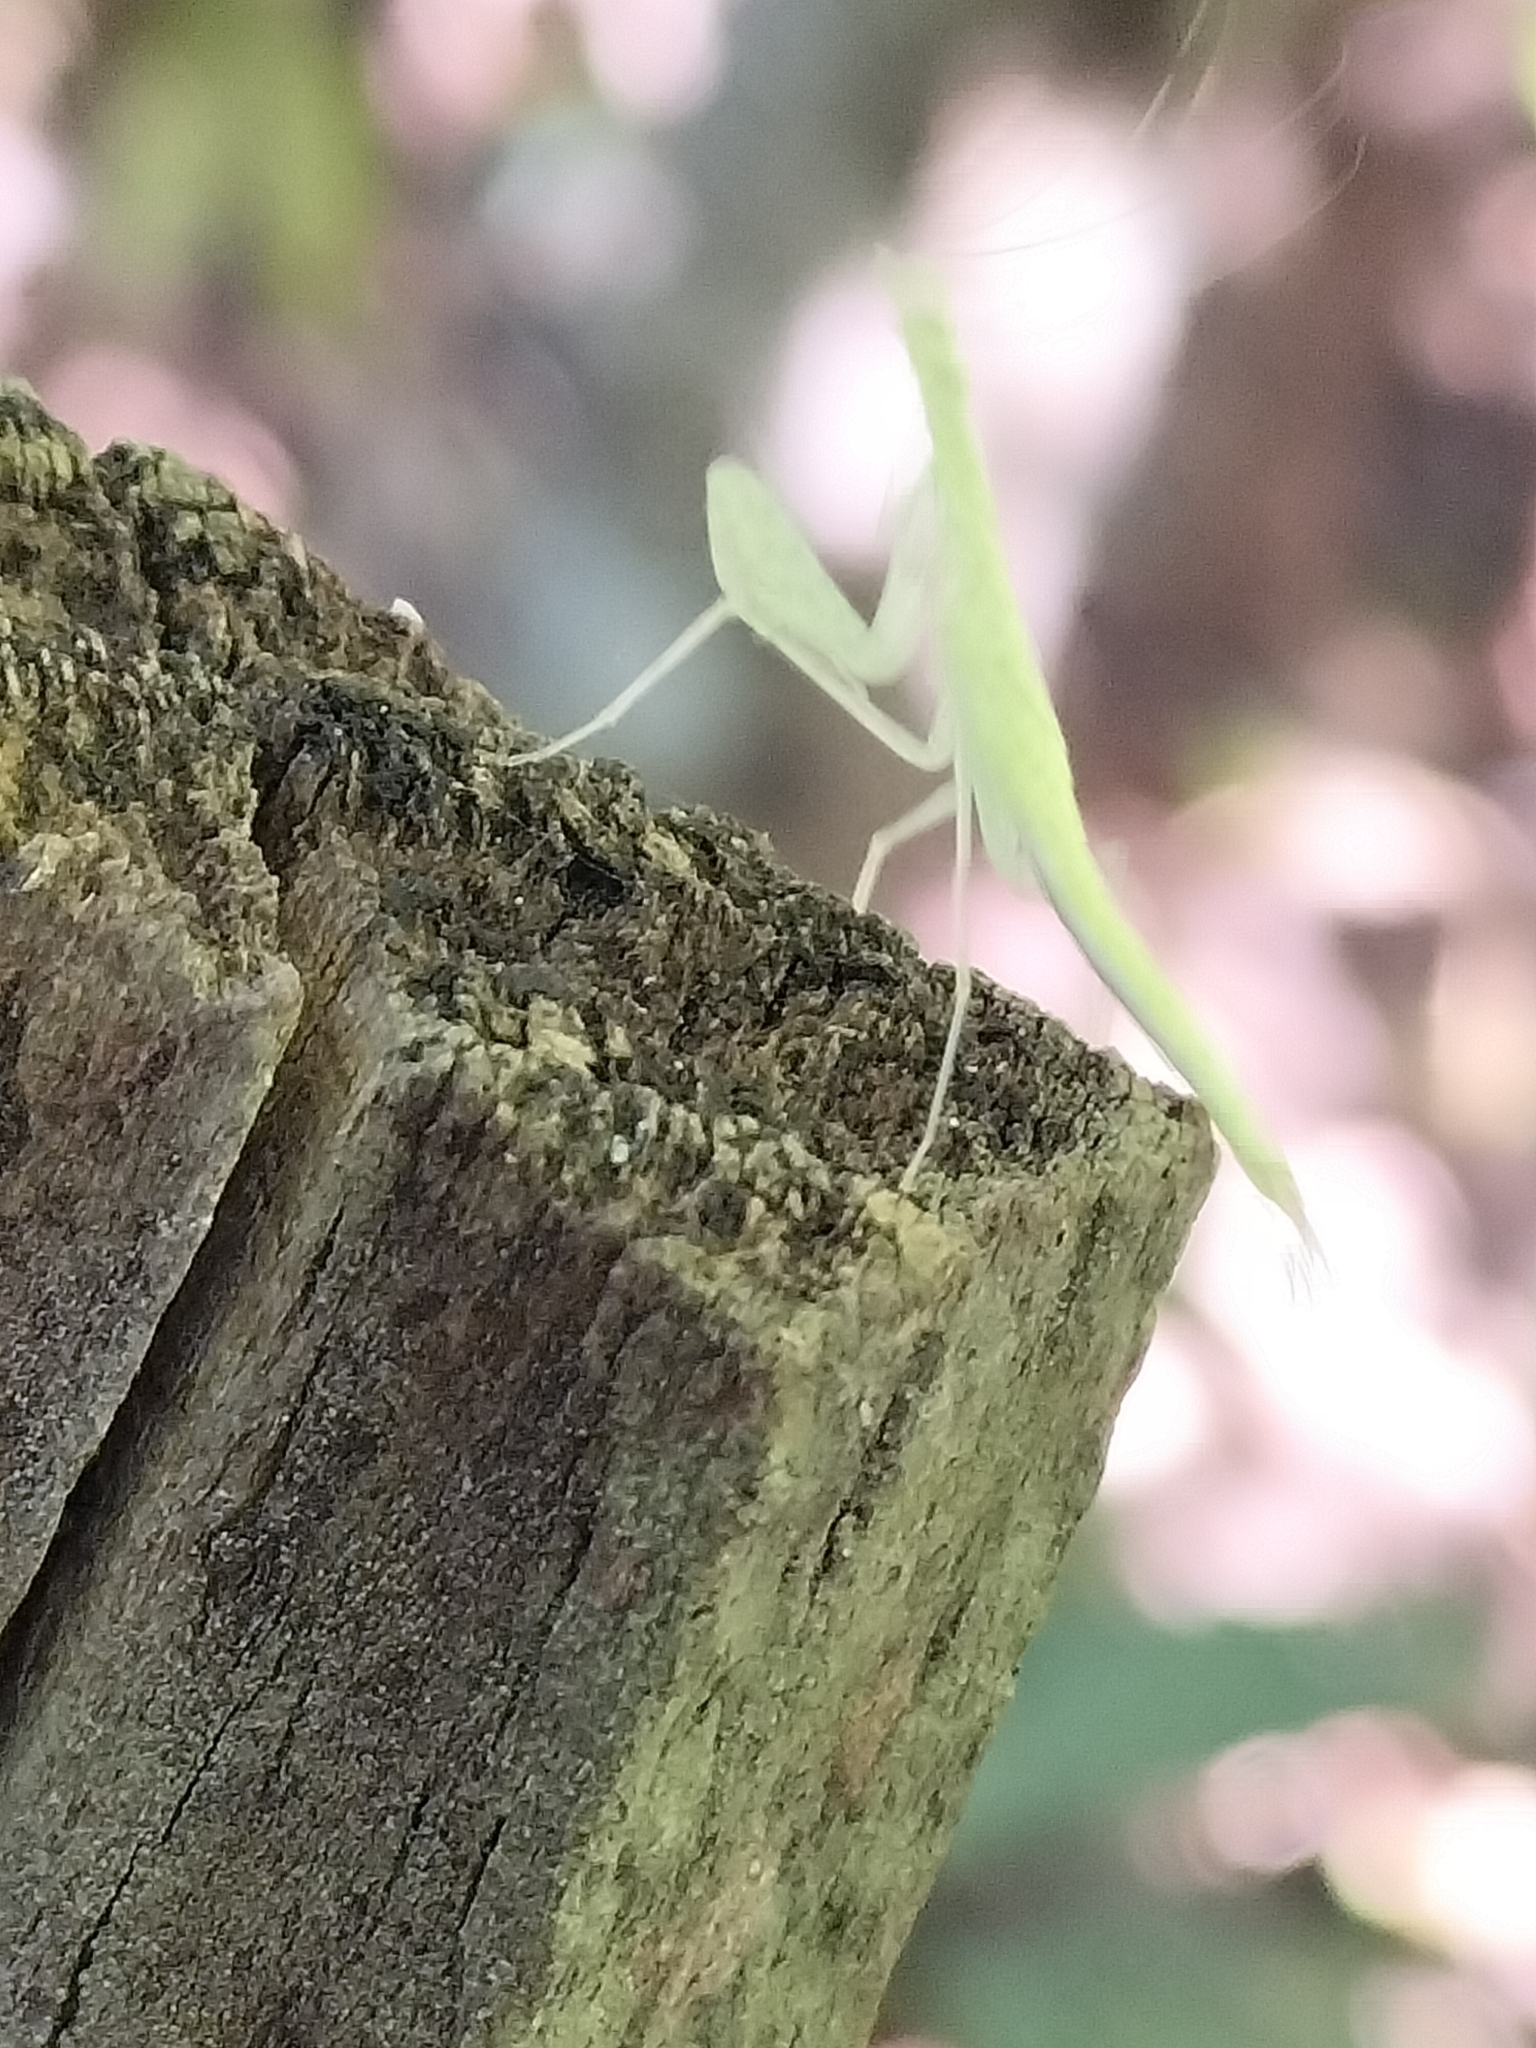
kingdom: Animalia
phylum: Arthropoda
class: Insecta
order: Mantodea
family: Nanomantidae
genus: Neomantis
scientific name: Neomantis australis
